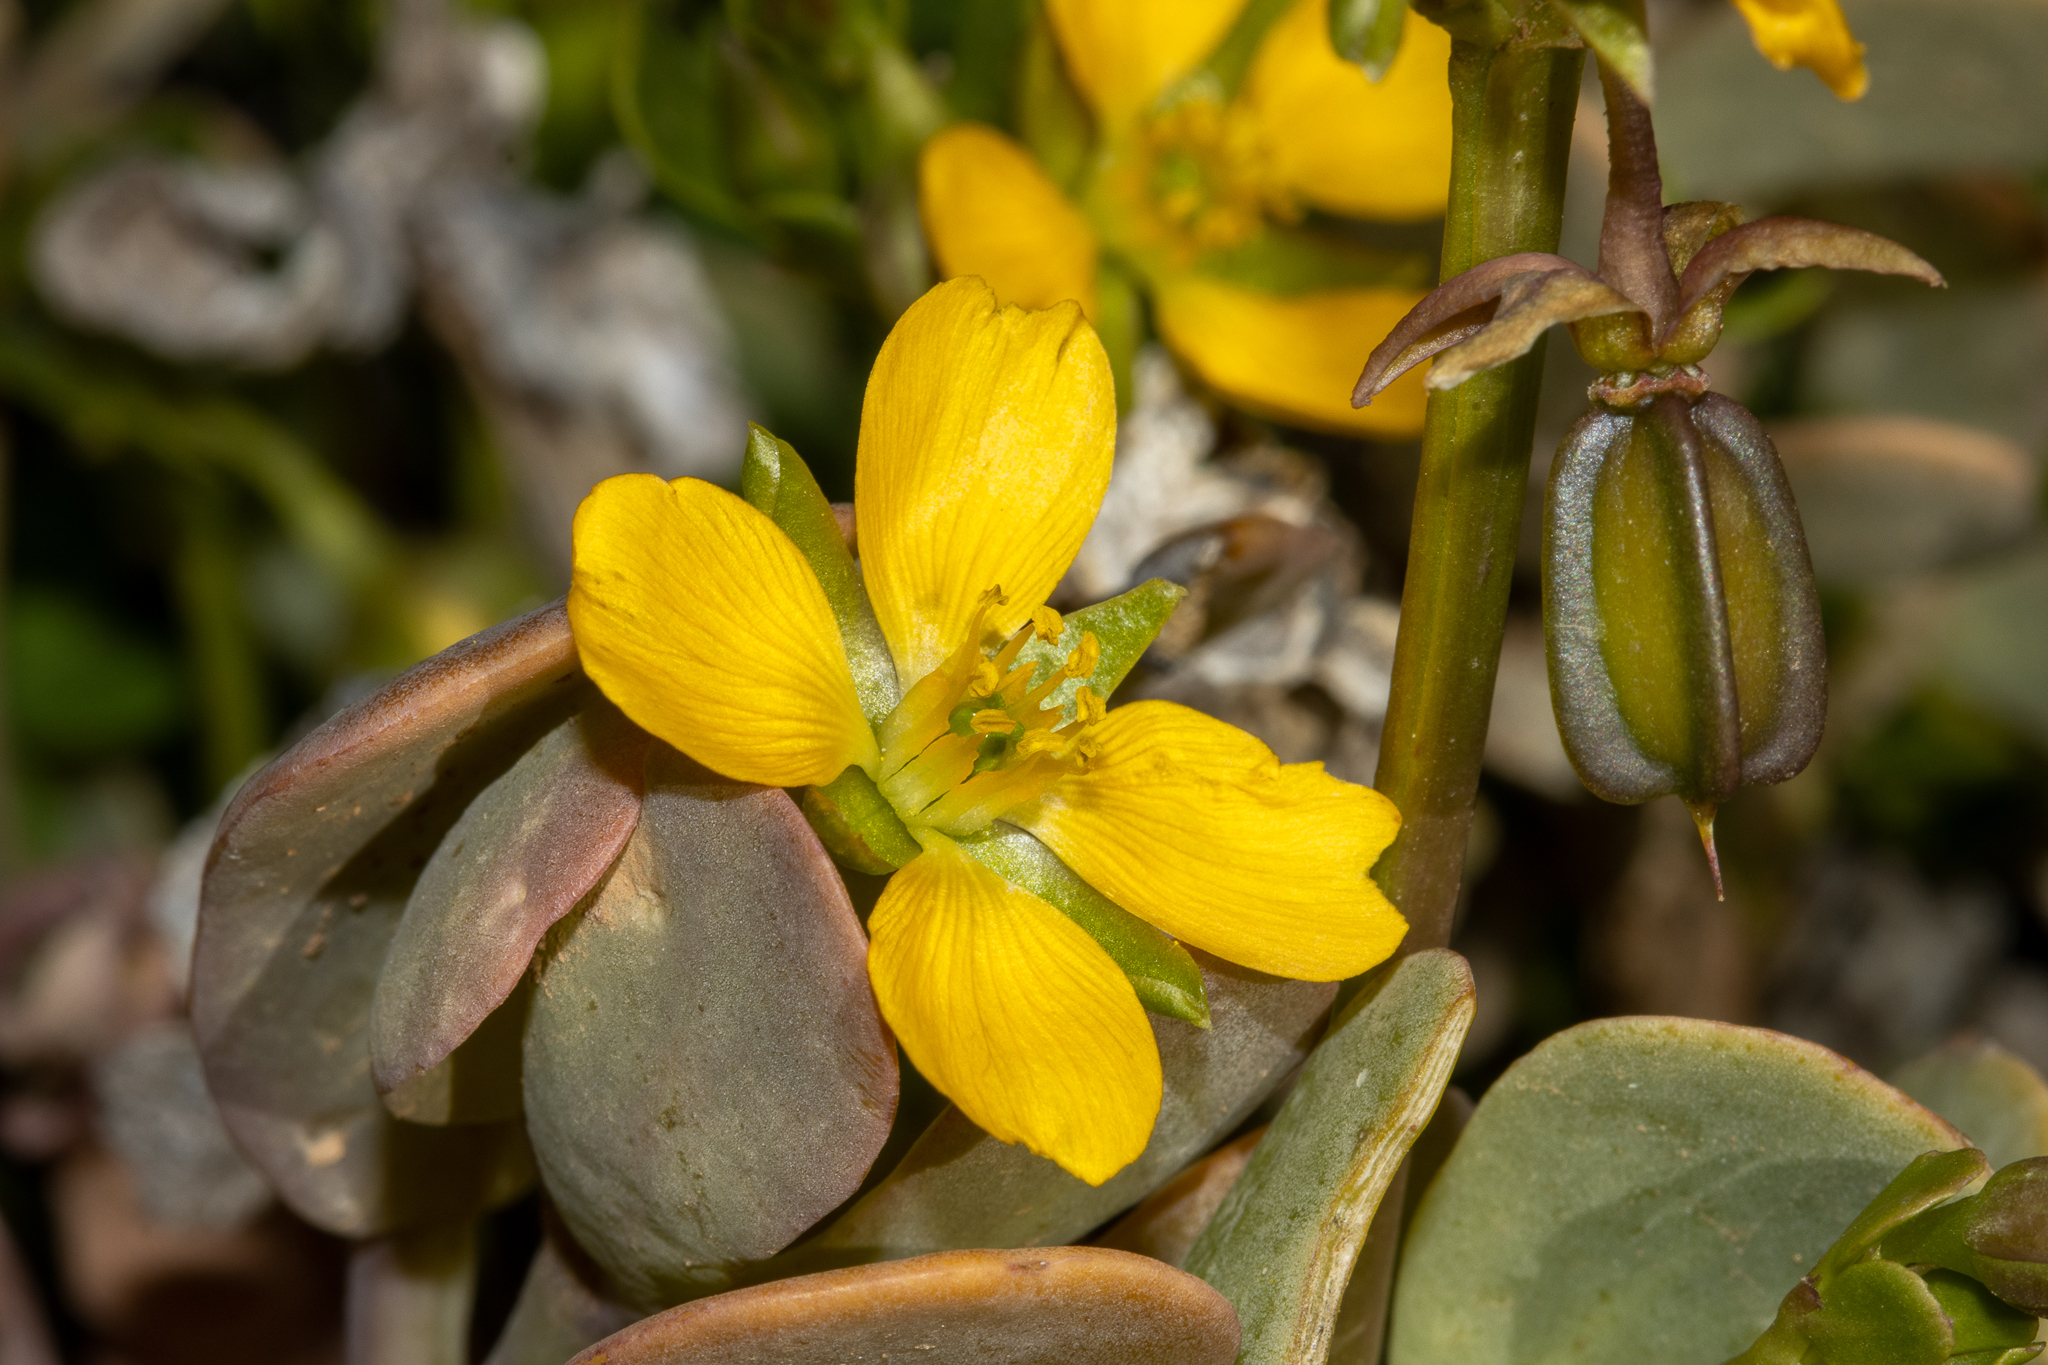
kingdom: Plantae
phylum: Tracheophyta
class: Magnoliopsida
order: Zygophyllales
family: Zygophyllaceae
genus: Roepera
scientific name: Roepera glauca
